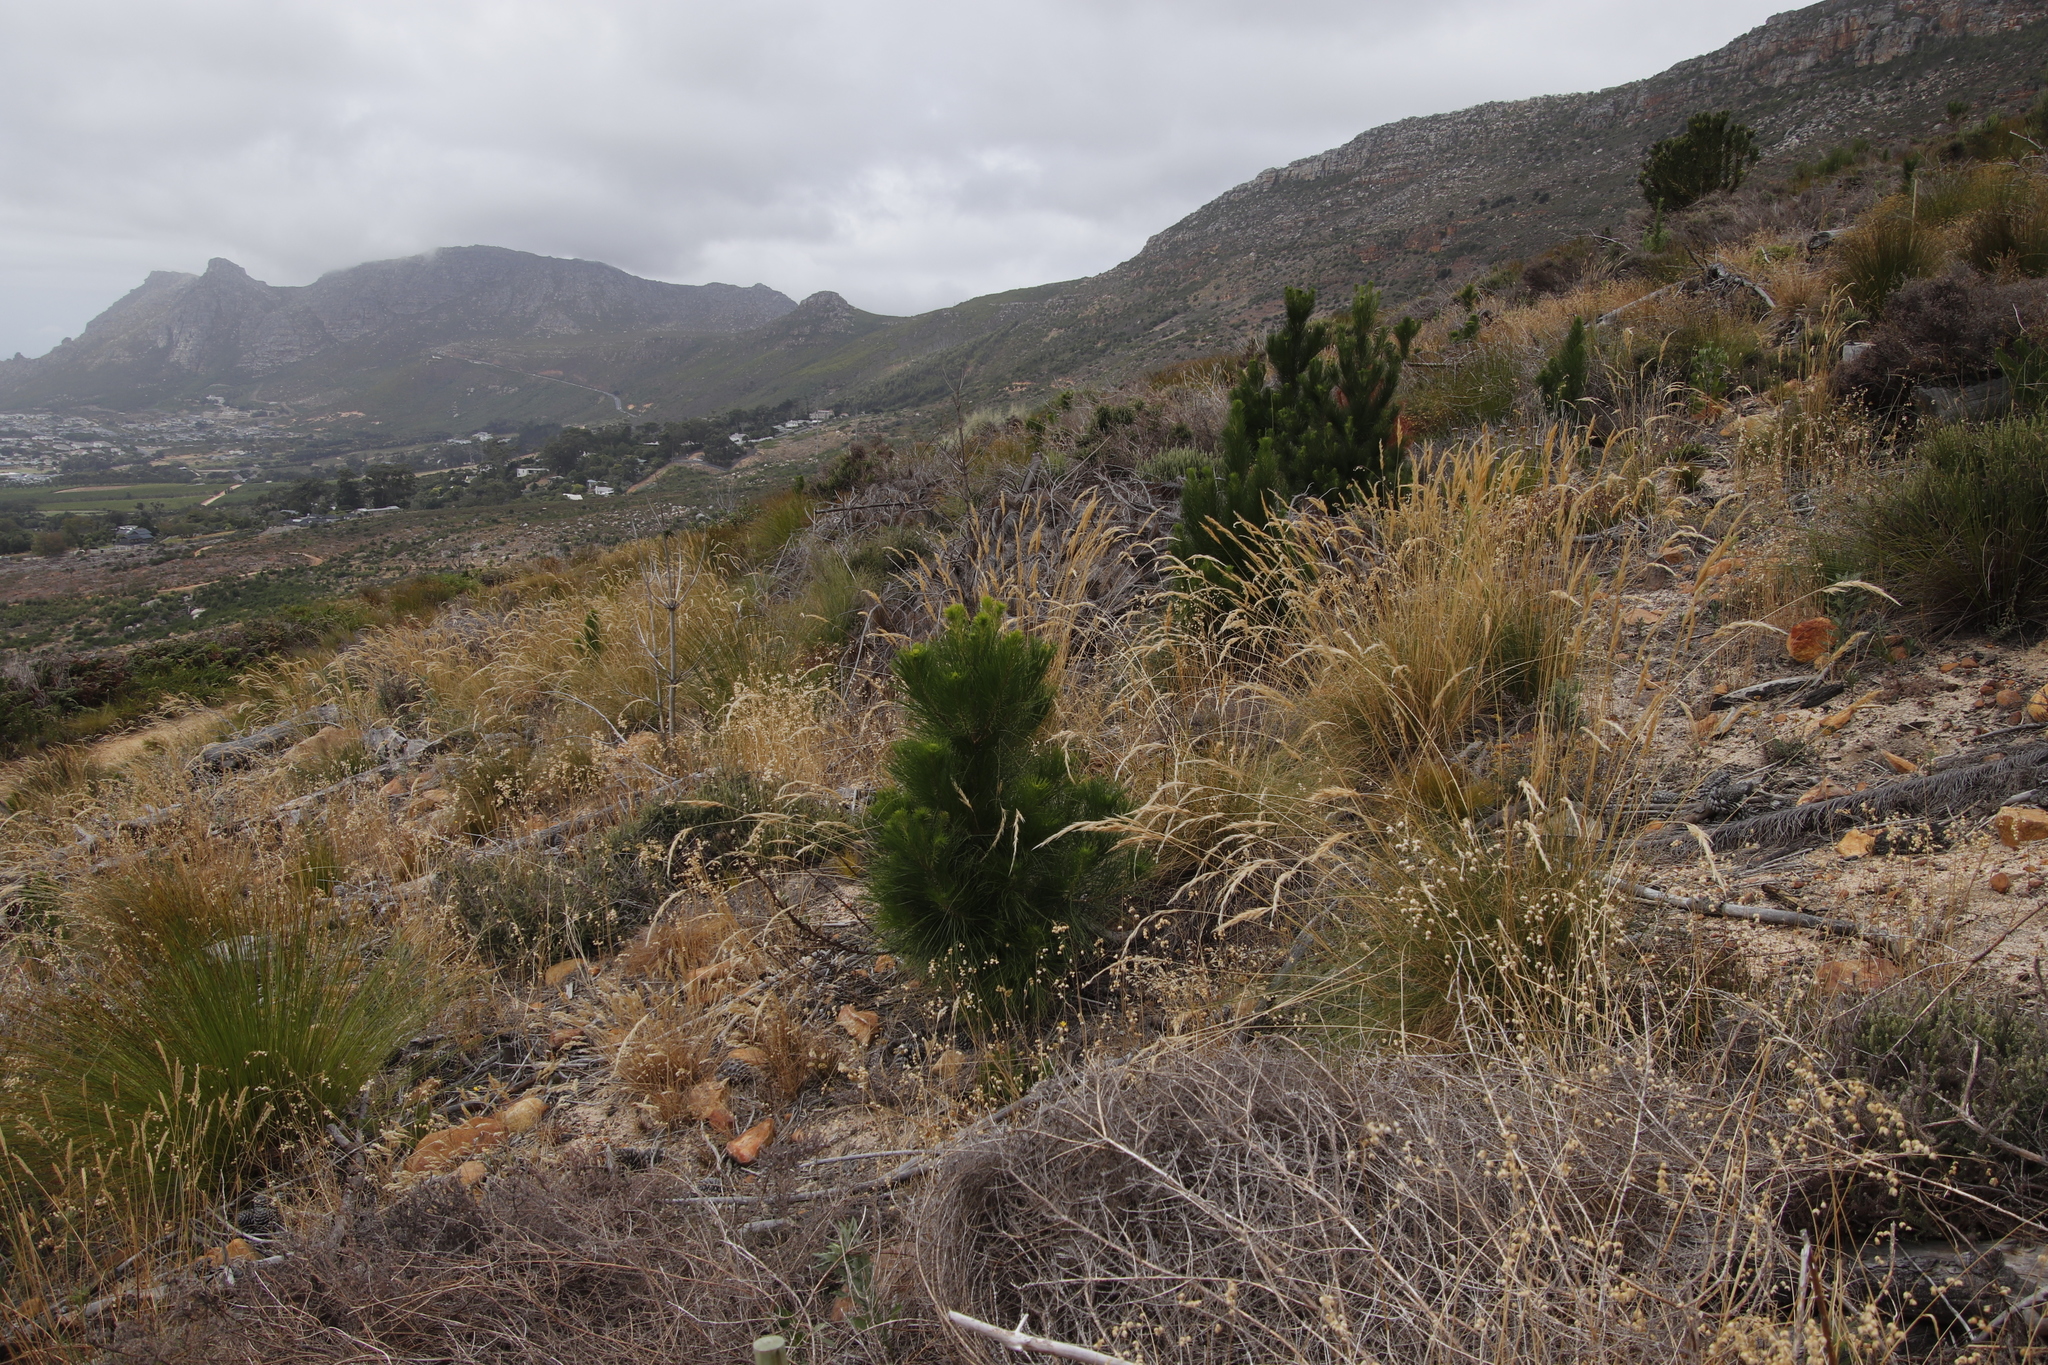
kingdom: Plantae
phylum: Tracheophyta
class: Pinopsida
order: Pinales
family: Pinaceae
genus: Pinus
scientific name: Pinus radiata
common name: Monterey pine
